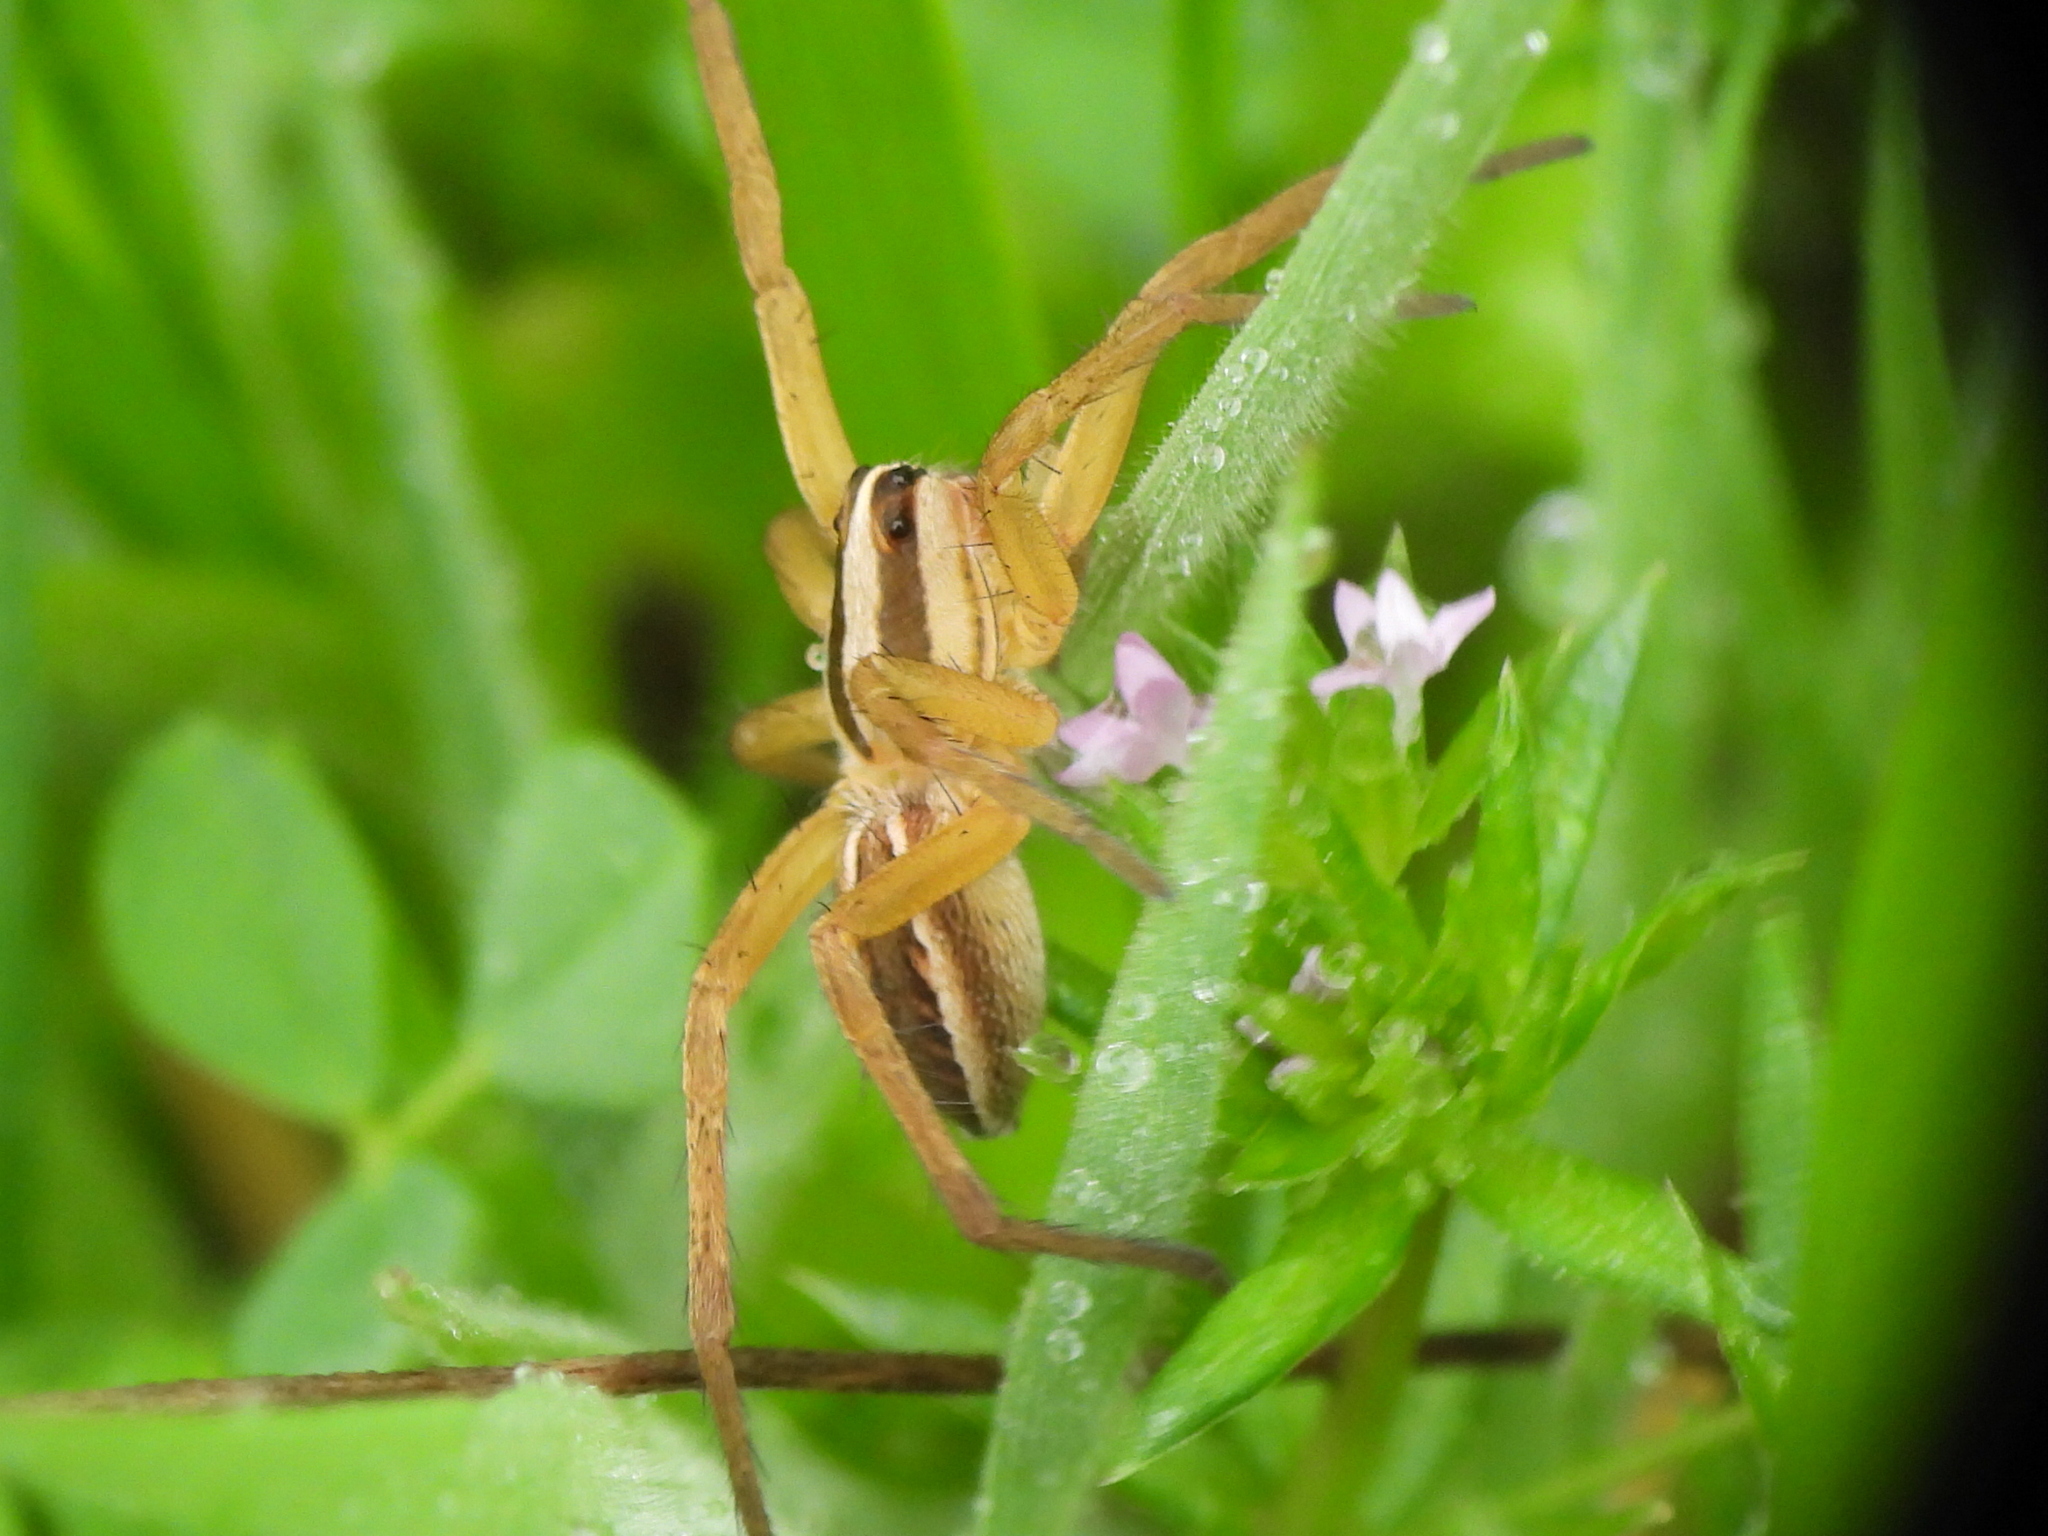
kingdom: Animalia
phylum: Arthropoda
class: Arachnida
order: Araneae
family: Lycosidae
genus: Rabidosa
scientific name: Rabidosa rabida
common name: Rabid wolf spider
